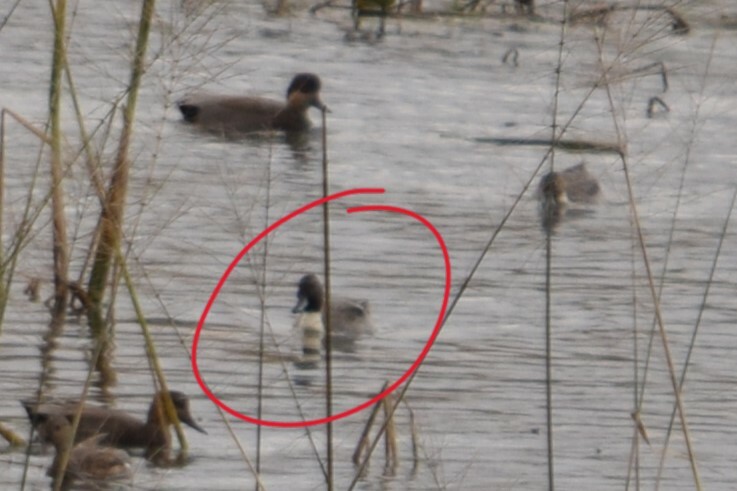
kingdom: Animalia
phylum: Chordata
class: Aves
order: Anseriformes
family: Anatidae
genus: Anas
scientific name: Anas acuta
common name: Northern pintail
